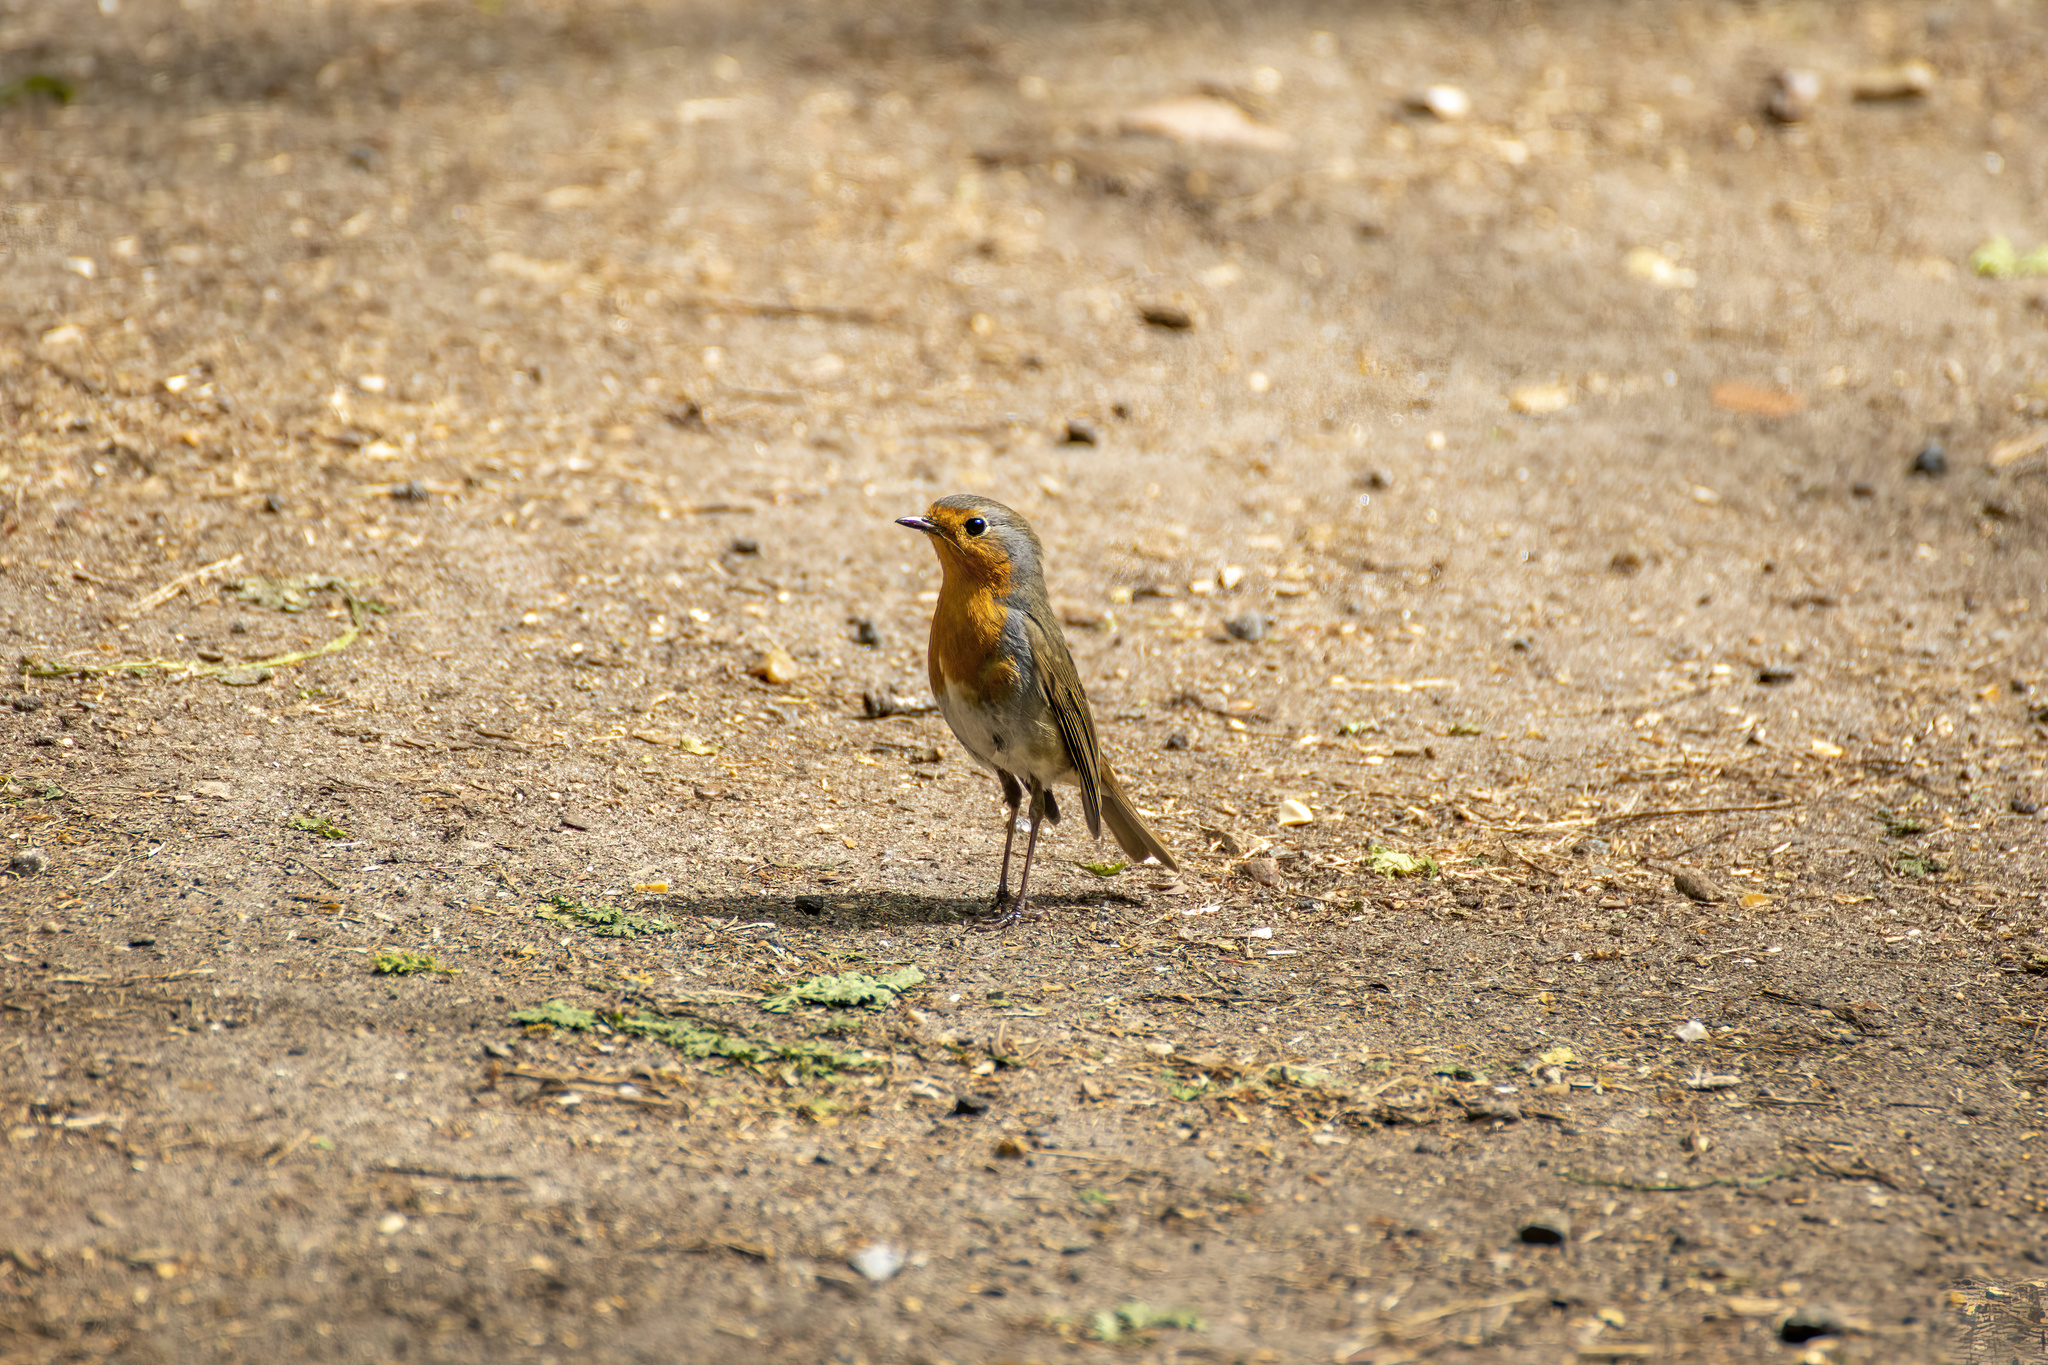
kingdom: Animalia
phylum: Chordata
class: Aves
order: Passeriformes
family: Muscicapidae
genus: Erithacus
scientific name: Erithacus rubecula
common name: European robin
